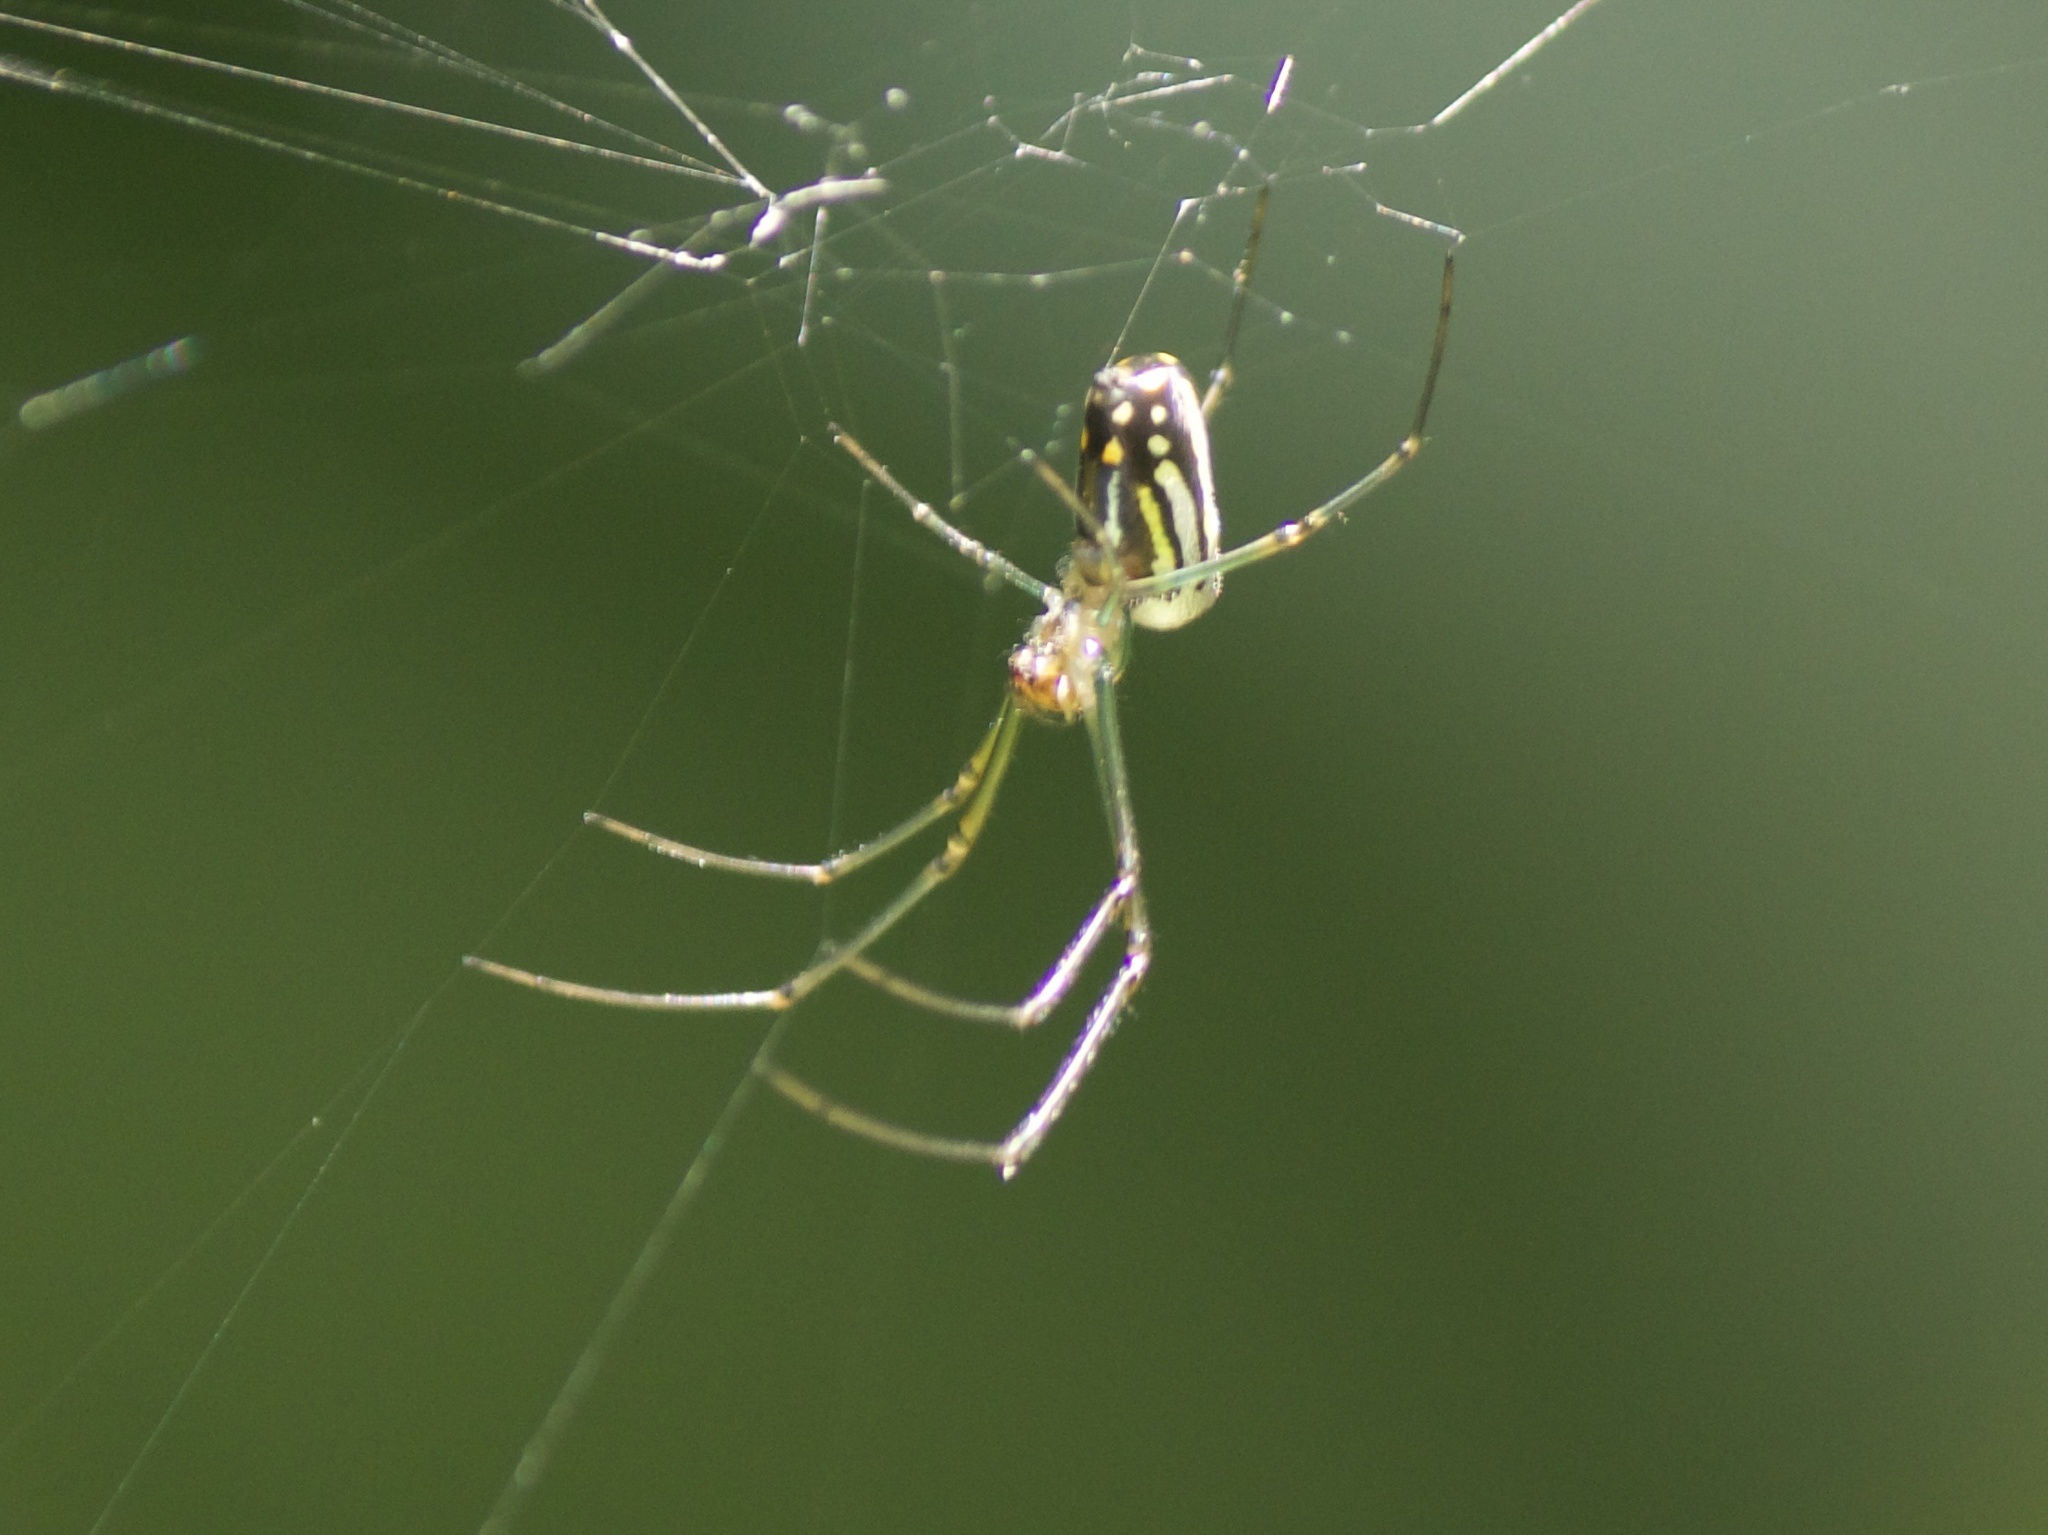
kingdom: Animalia
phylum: Arthropoda
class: Arachnida
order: Araneae
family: Tetragnathidae
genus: Leucauge
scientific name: Leucauge argyra
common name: Longjawed orb weavers
